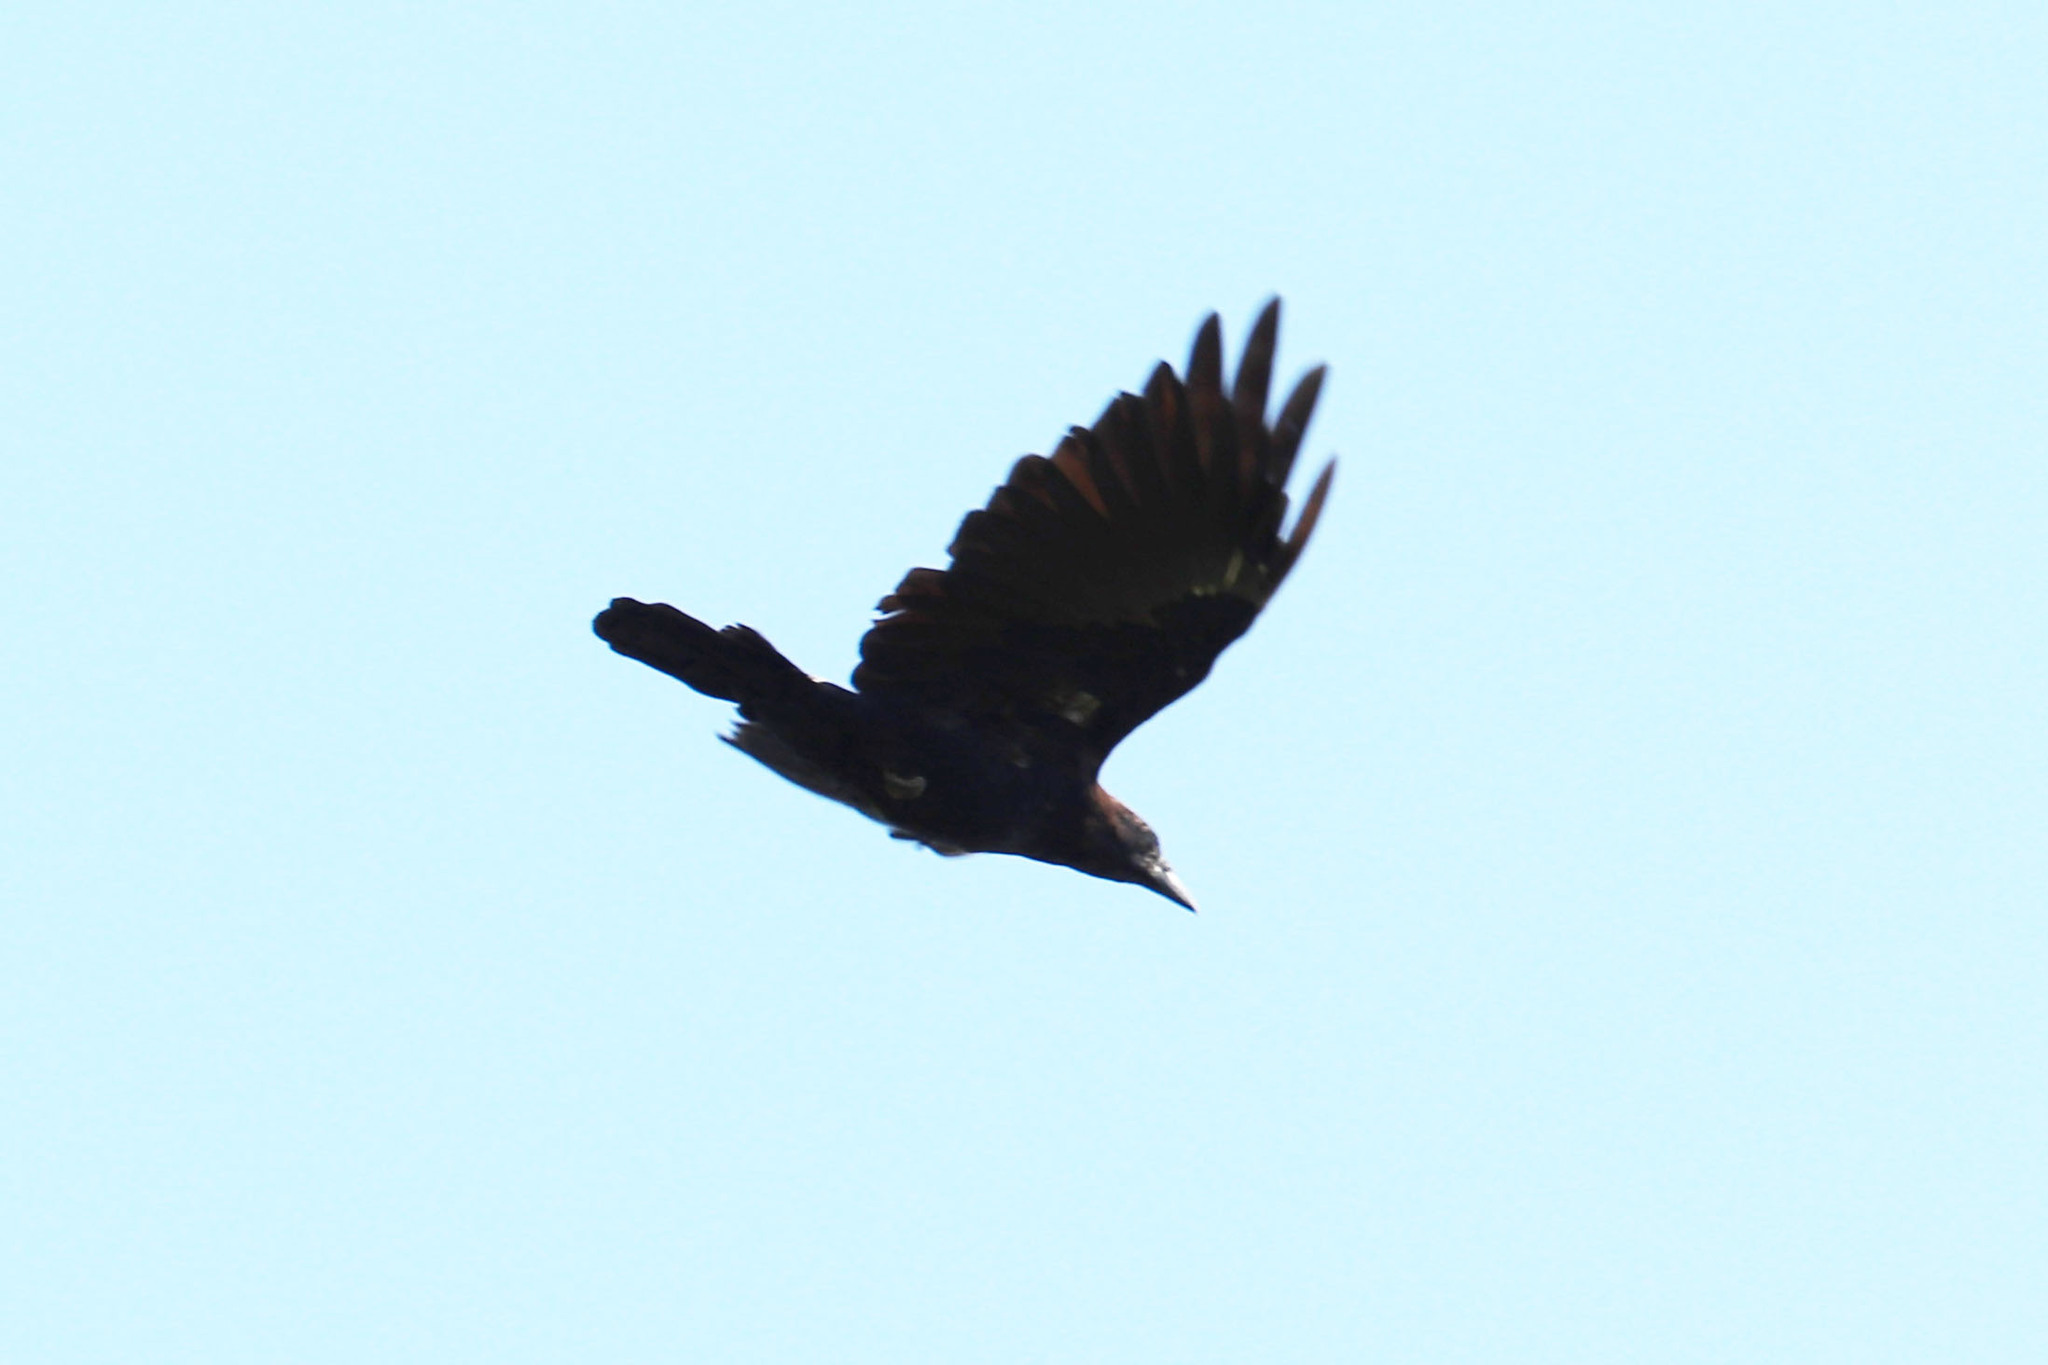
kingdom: Animalia
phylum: Chordata
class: Aves
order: Passeriformes
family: Corvidae
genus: Corvus
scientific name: Corvus brachyrhynchos
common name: American crow
